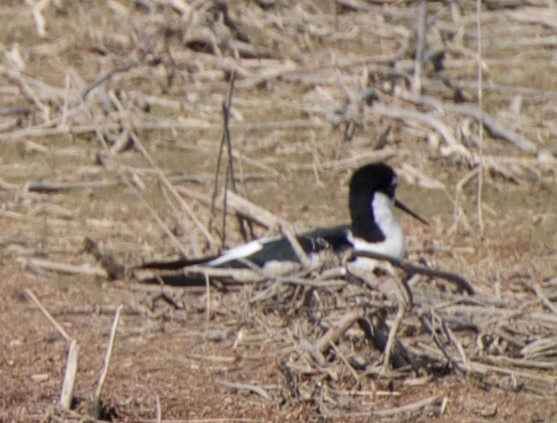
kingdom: Animalia
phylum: Chordata
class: Aves
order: Charadriiformes
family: Recurvirostridae
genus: Himantopus
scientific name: Himantopus mexicanus
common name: Black-necked stilt
